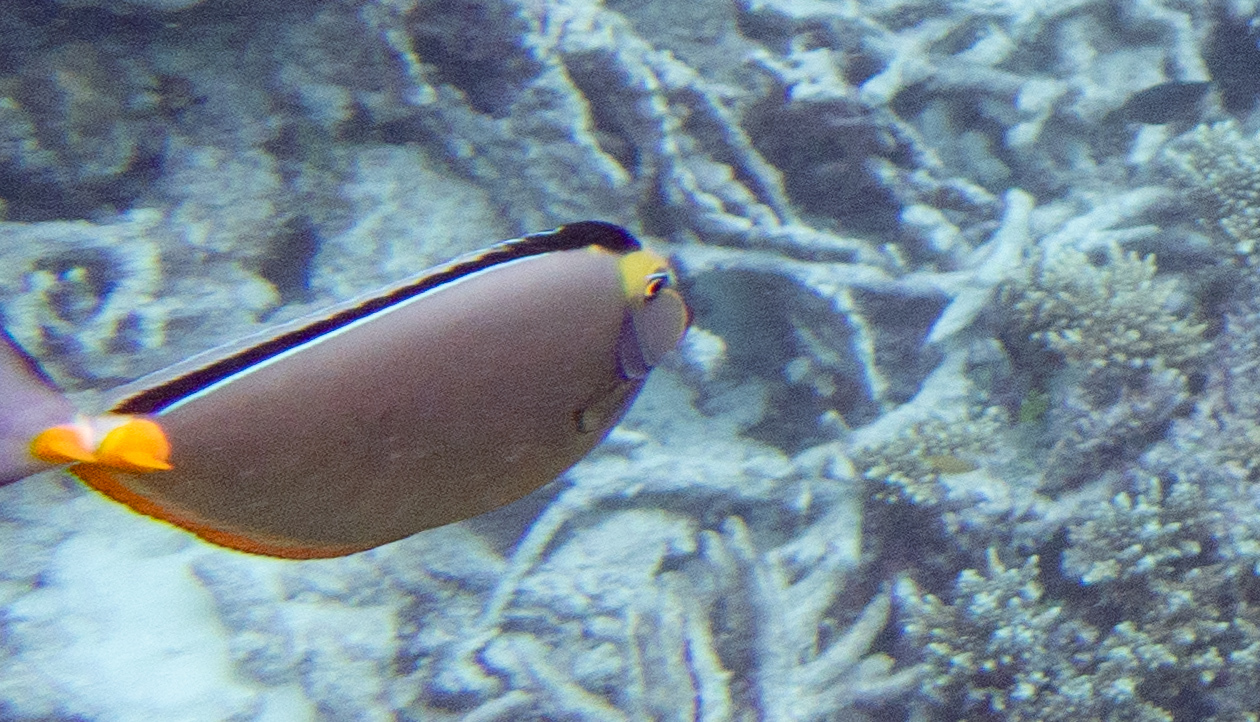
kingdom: Animalia
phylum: Chordata
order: Perciformes
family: Acanthuridae
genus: Naso
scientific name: Naso lituratus
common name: Orangespine unicornfish
